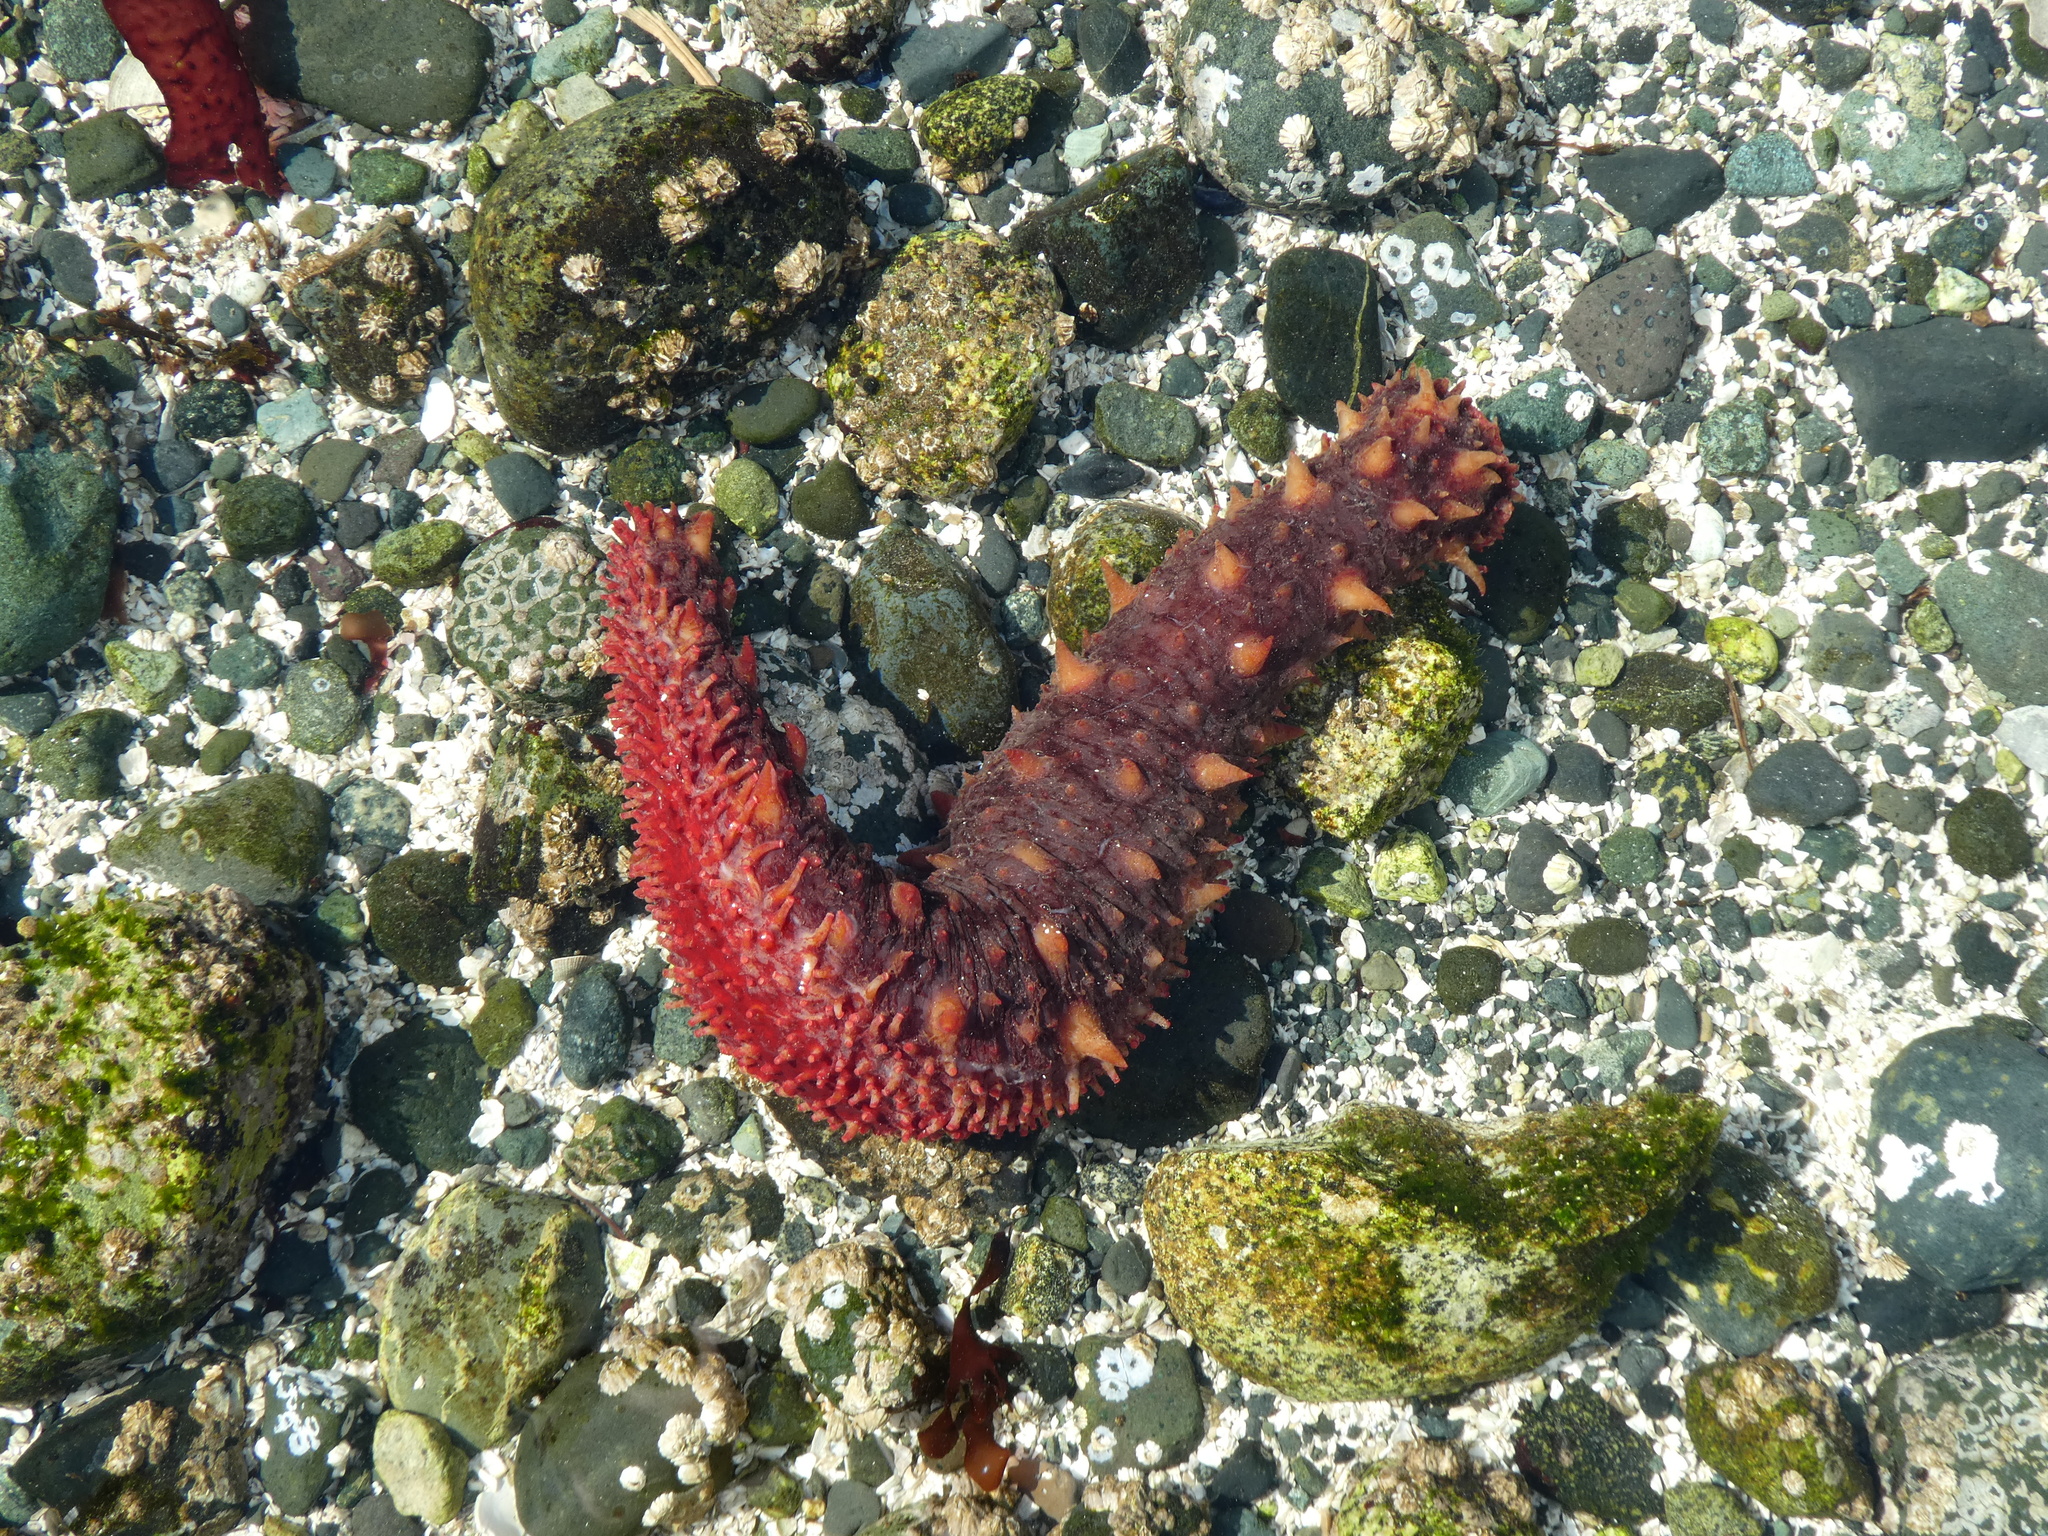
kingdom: Animalia
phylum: Echinodermata
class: Holothuroidea
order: Synallactida
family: Stichopodidae
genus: Apostichopus
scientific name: Apostichopus californicus
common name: California sea cucumber
